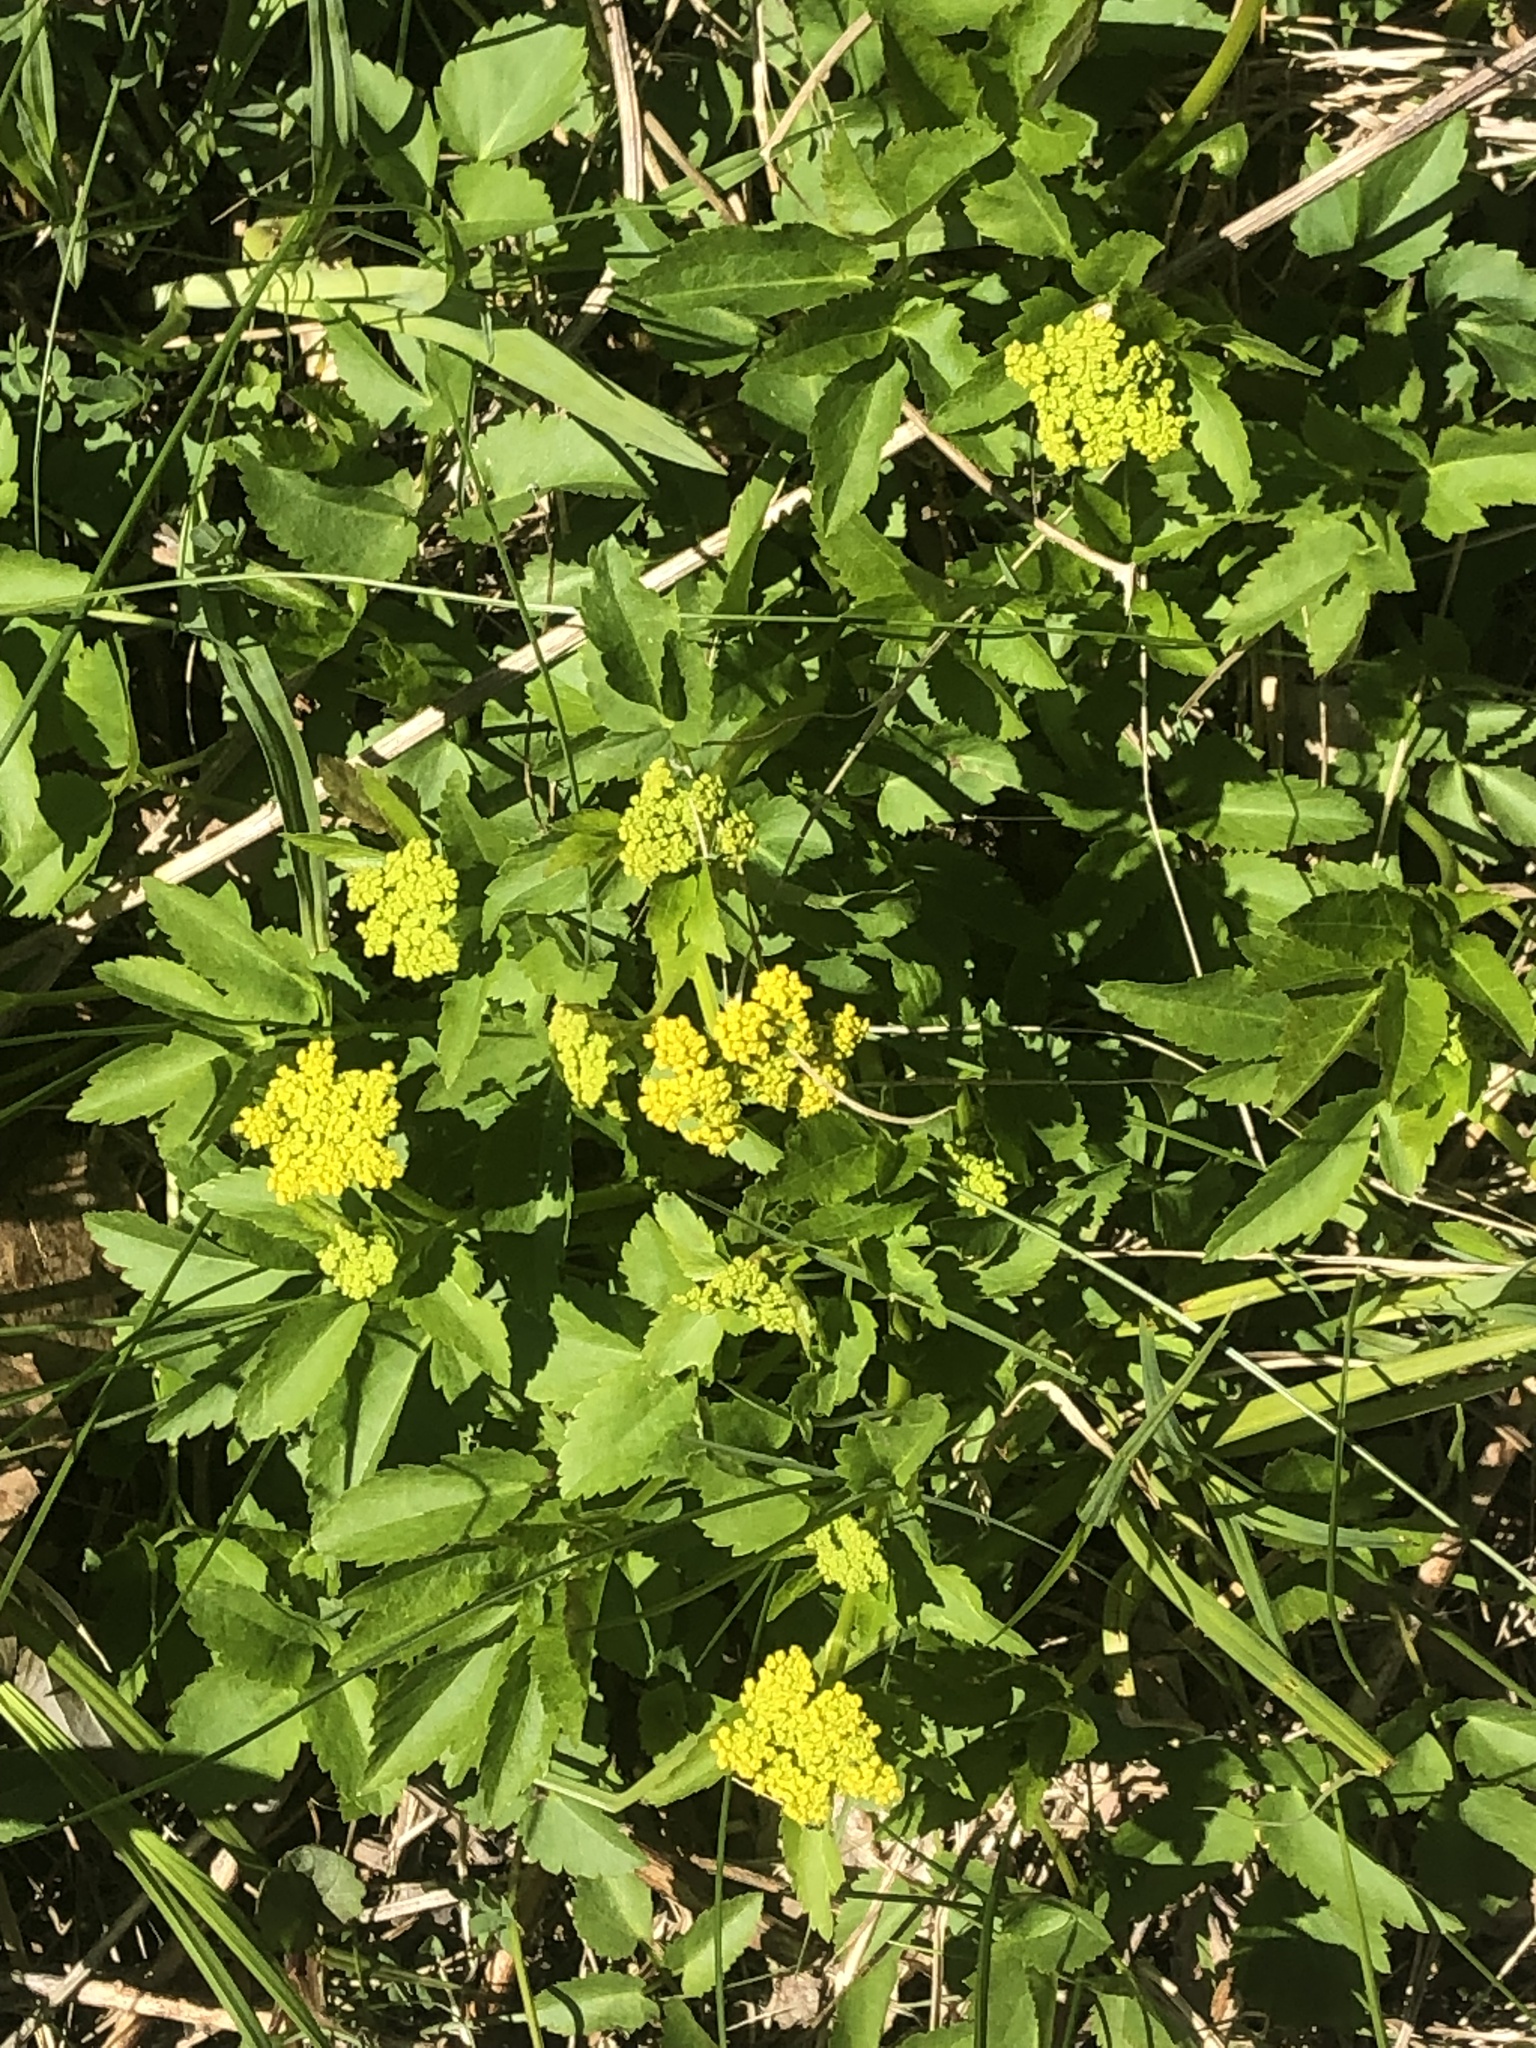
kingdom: Plantae
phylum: Tracheophyta
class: Magnoliopsida
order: Apiales
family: Apiaceae
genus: Zizia
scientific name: Zizia aurea
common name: Golden alexanders
